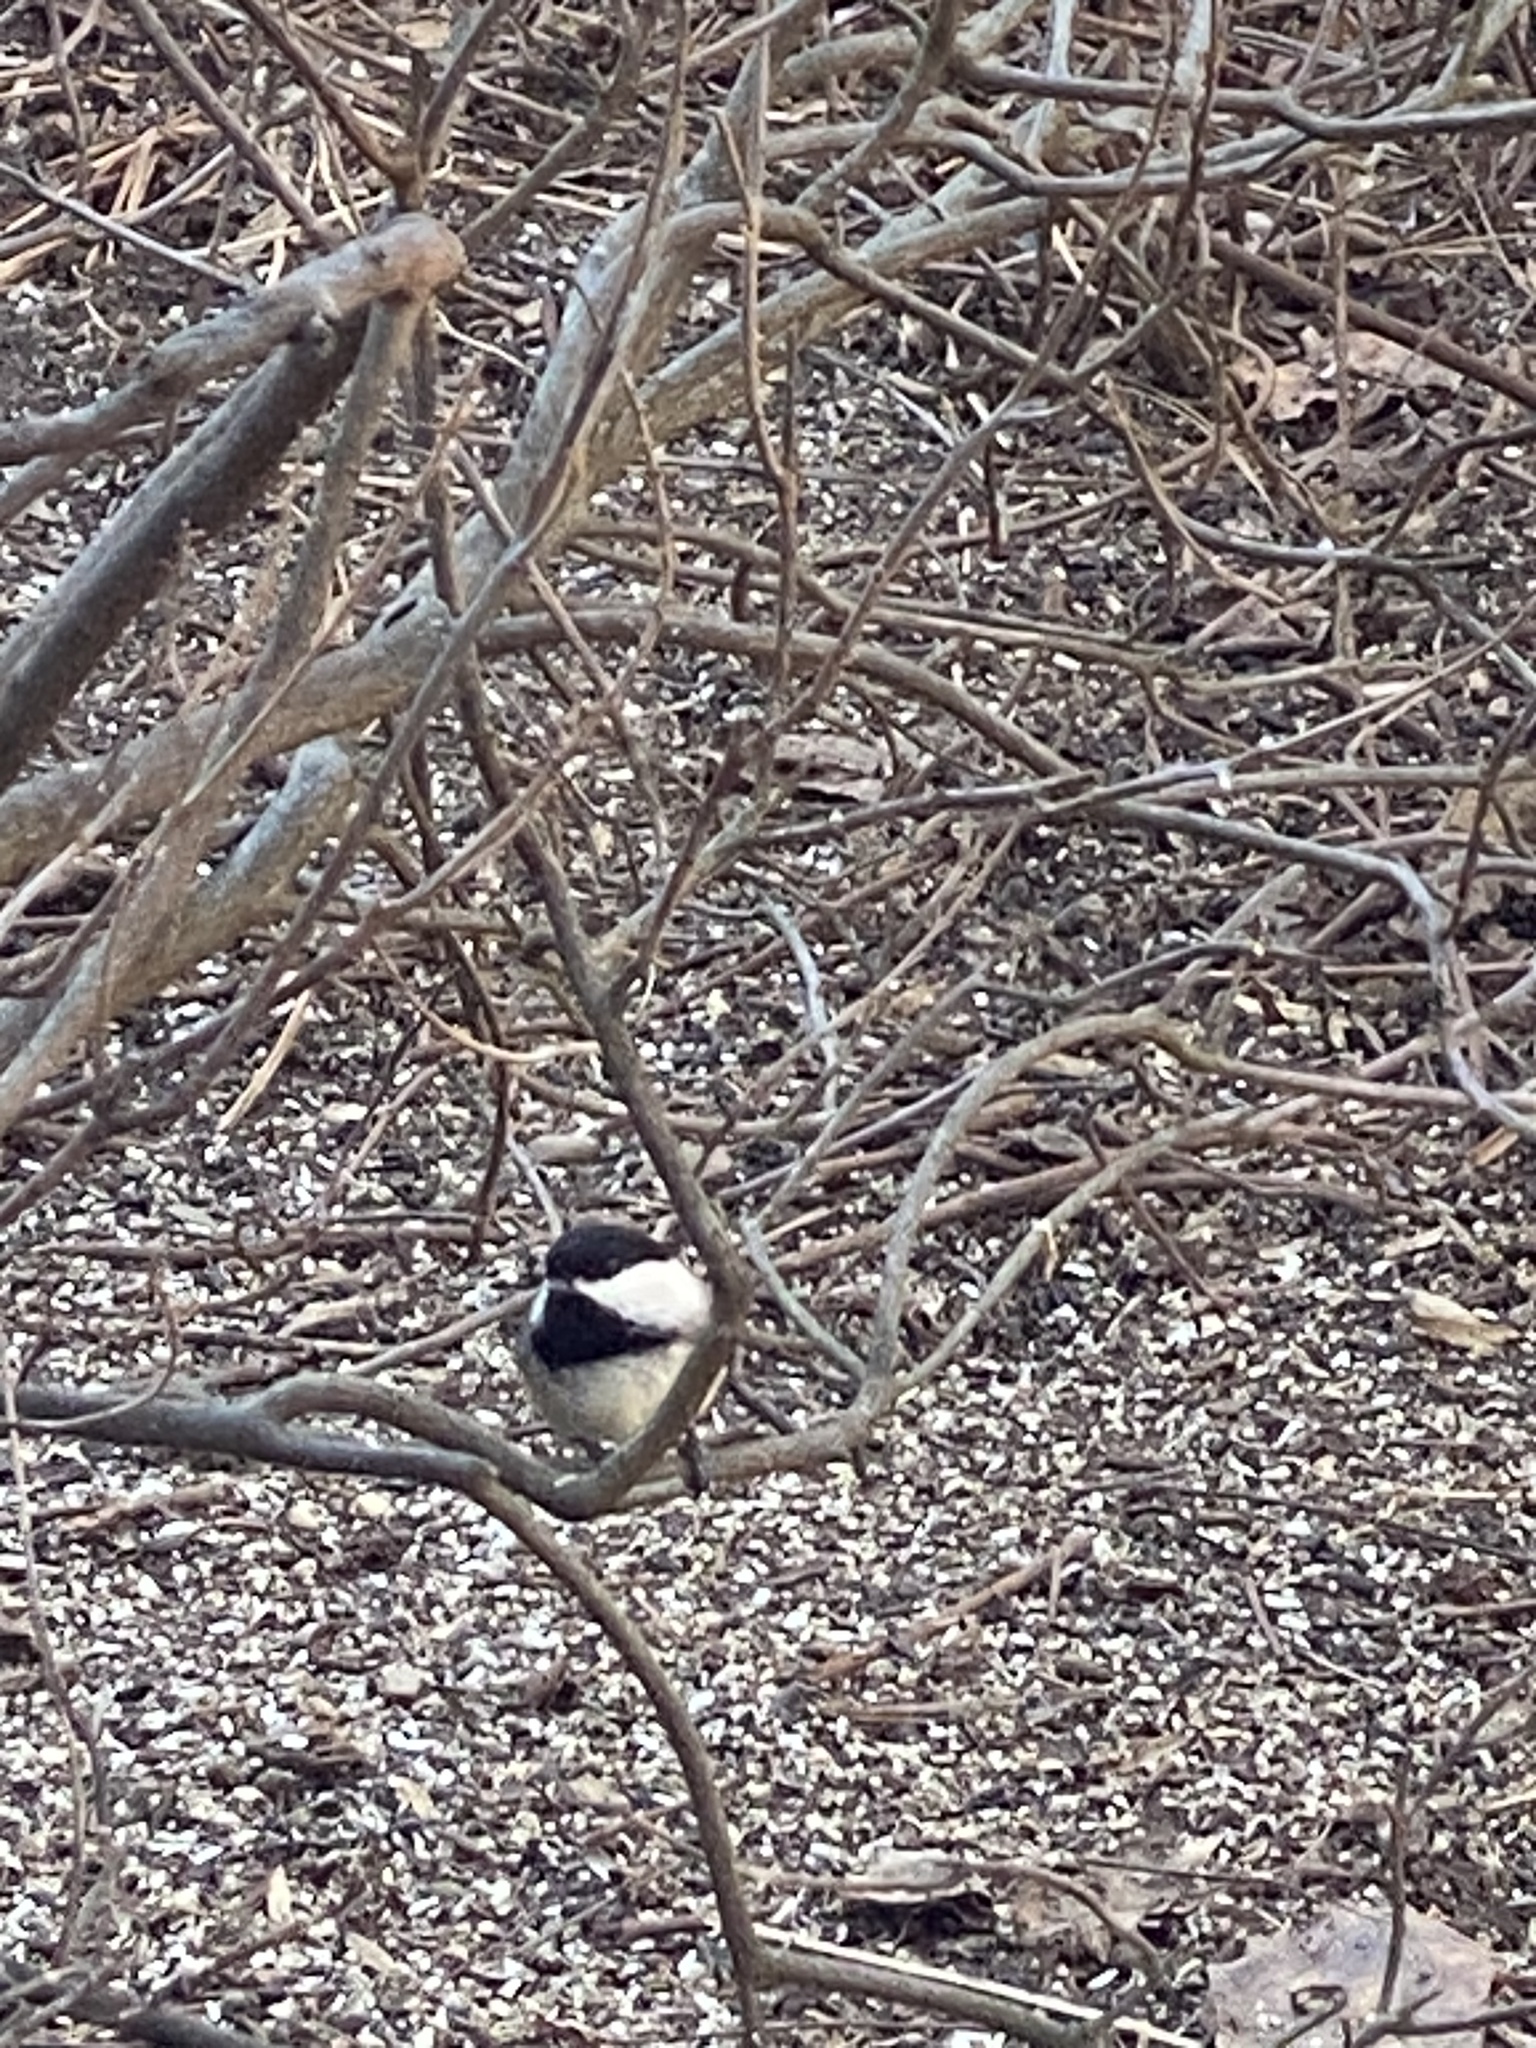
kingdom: Animalia
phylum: Chordata
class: Aves
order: Passeriformes
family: Paridae
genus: Poecile
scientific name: Poecile atricapillus
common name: Black-capped chickadee
